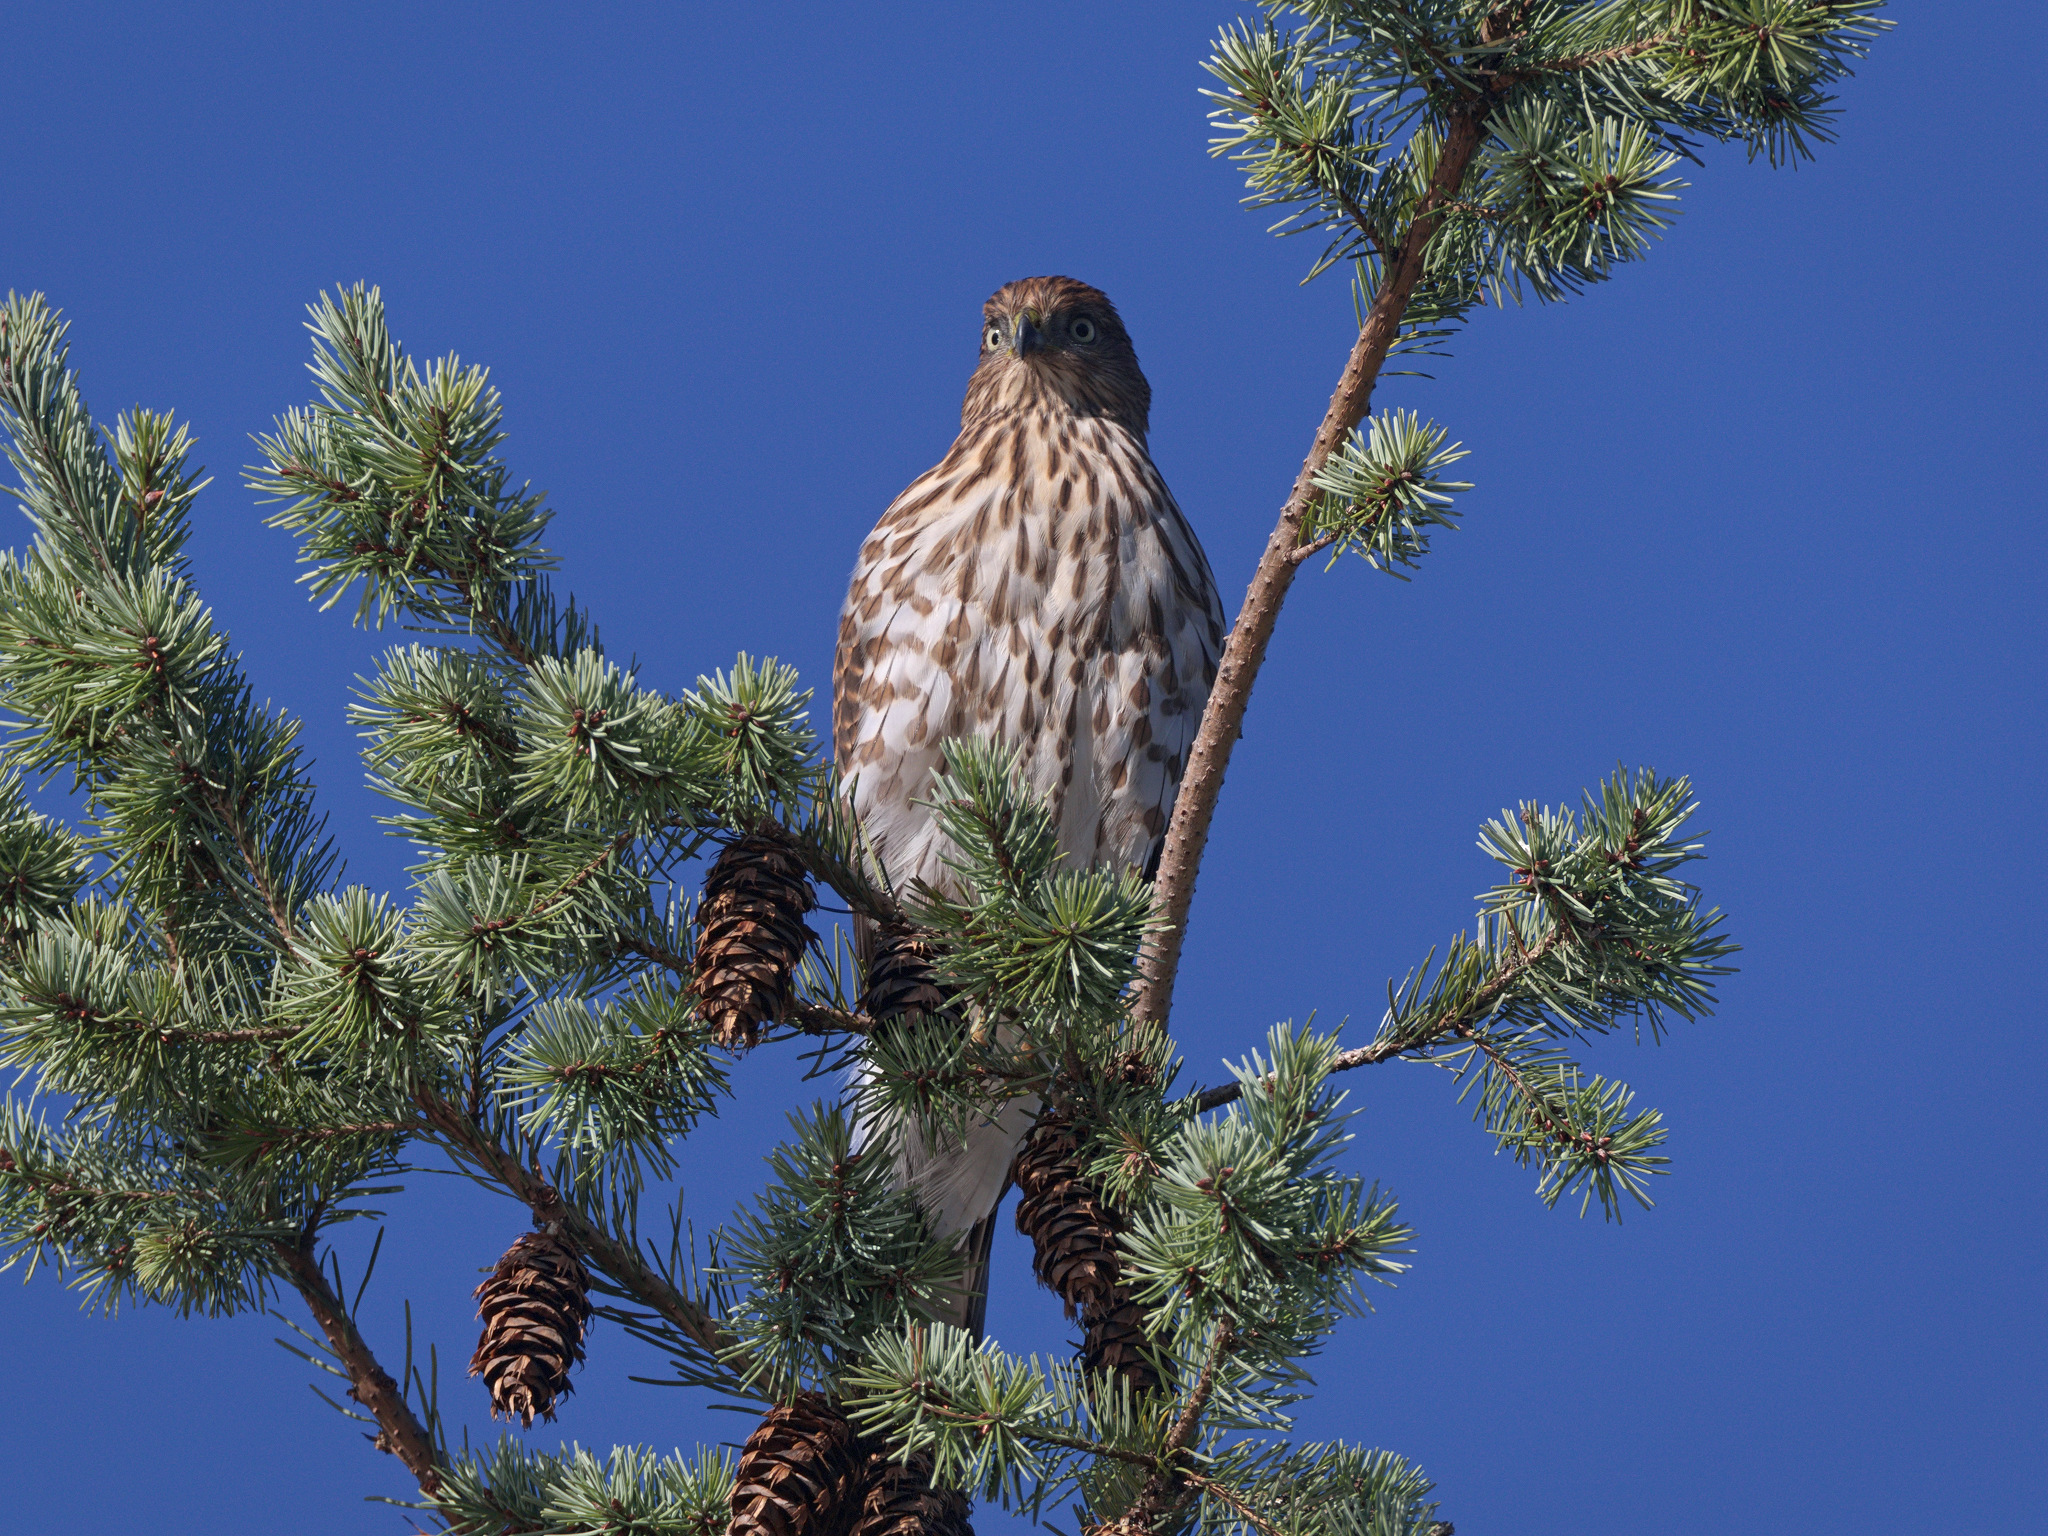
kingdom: Animalia
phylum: Chordata
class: Aves
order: Accipitriformes
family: Accipitridae
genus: Accipiter
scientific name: Accipiter cooperii
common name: Cooper's hawk
